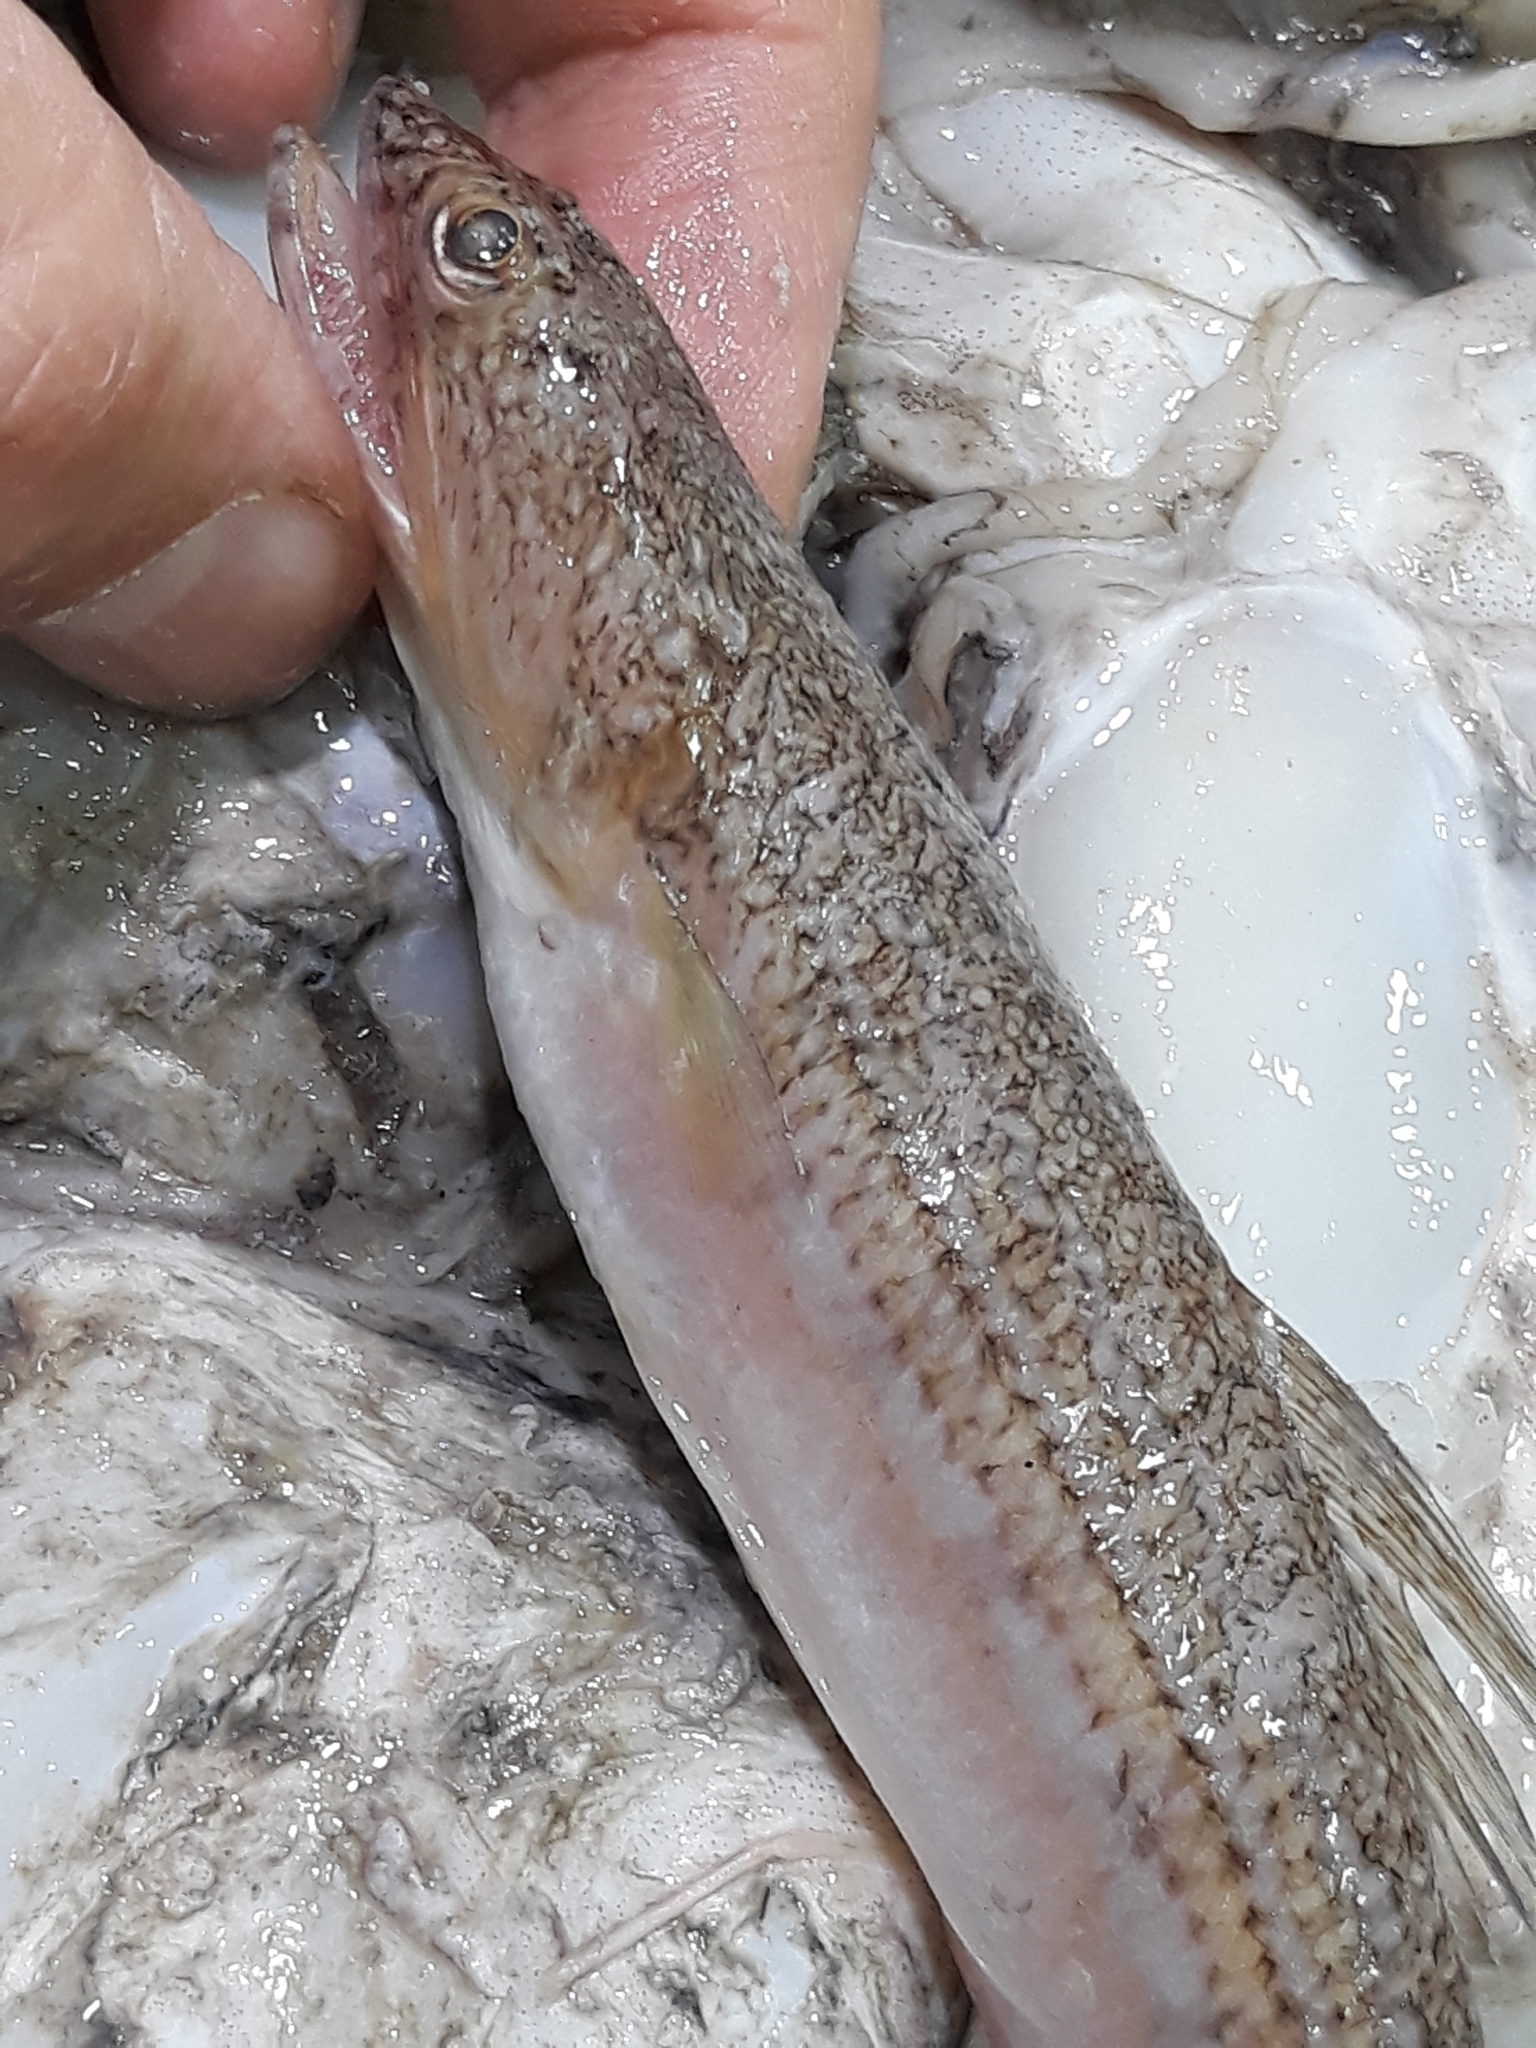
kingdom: Animalia
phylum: Chordata
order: Aulopiformes
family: Synodontidae
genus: Synodus
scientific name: Synodus saurus
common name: Atlantic lizardfish
